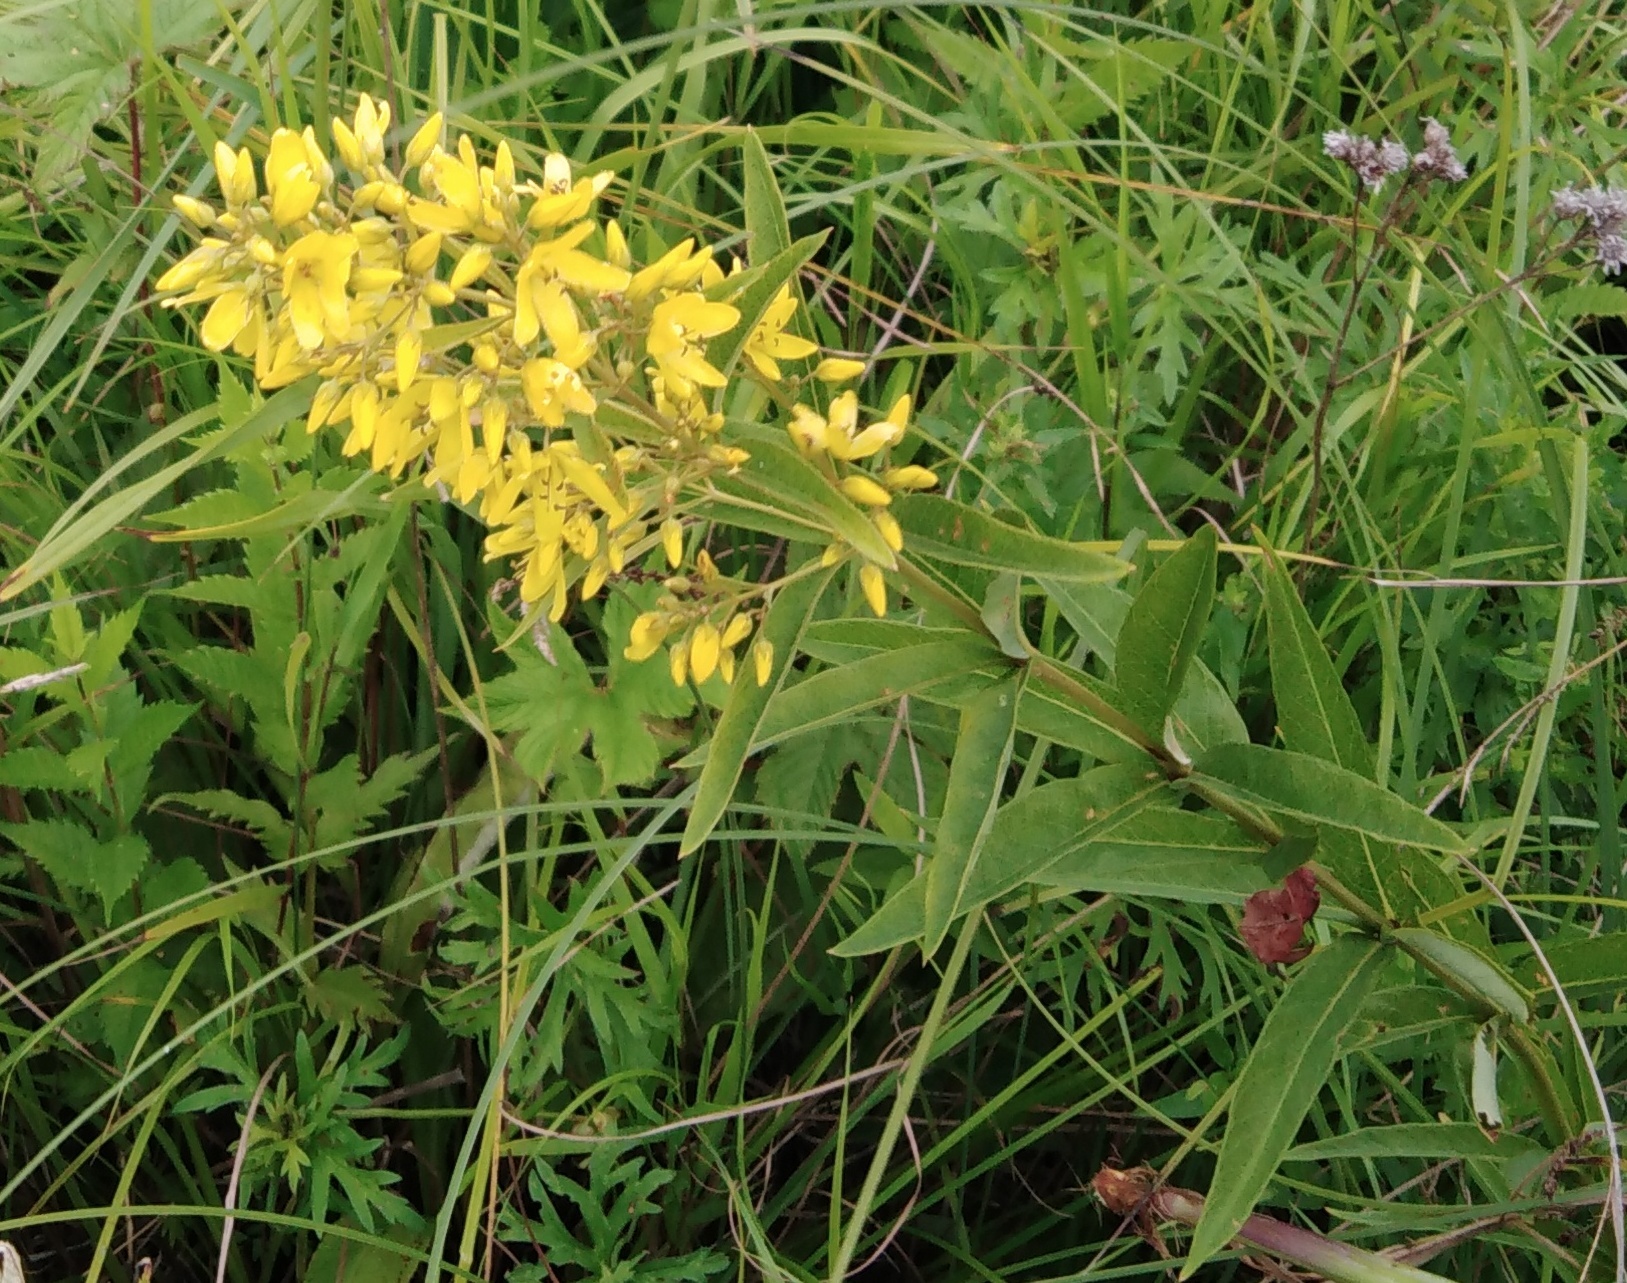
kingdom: Plantae
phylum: Tracheophyta
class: Magnoliopsida
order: Ericales
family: Primulaceae
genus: Lysimachia
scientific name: Lysimachia davurica
